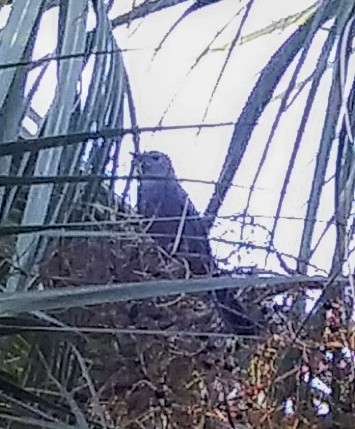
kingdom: Animalia
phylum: Chordata
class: Aves
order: Passeriformes
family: Mimidae
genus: Dumetella
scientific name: Dumetella carolinensis
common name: Gray catbird
